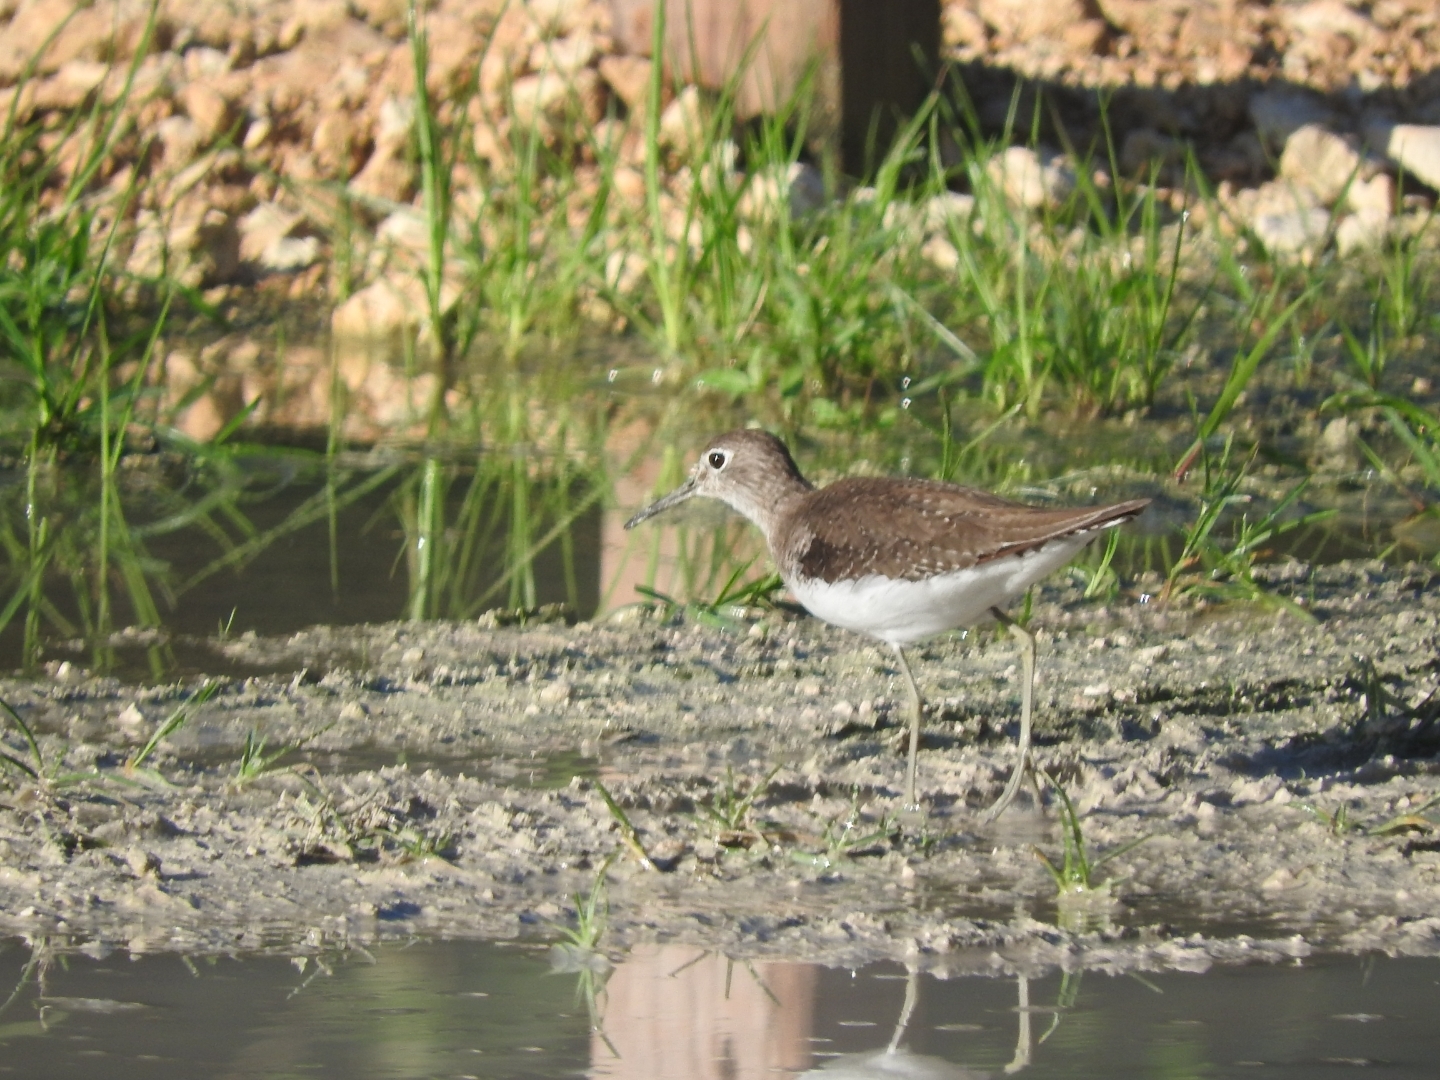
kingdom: Animalia
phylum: Chordata
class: Aves
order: Charadriiformes
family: Scolopacidae
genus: Tringa
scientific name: Tringa solitaria
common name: Solitary sandpiper
